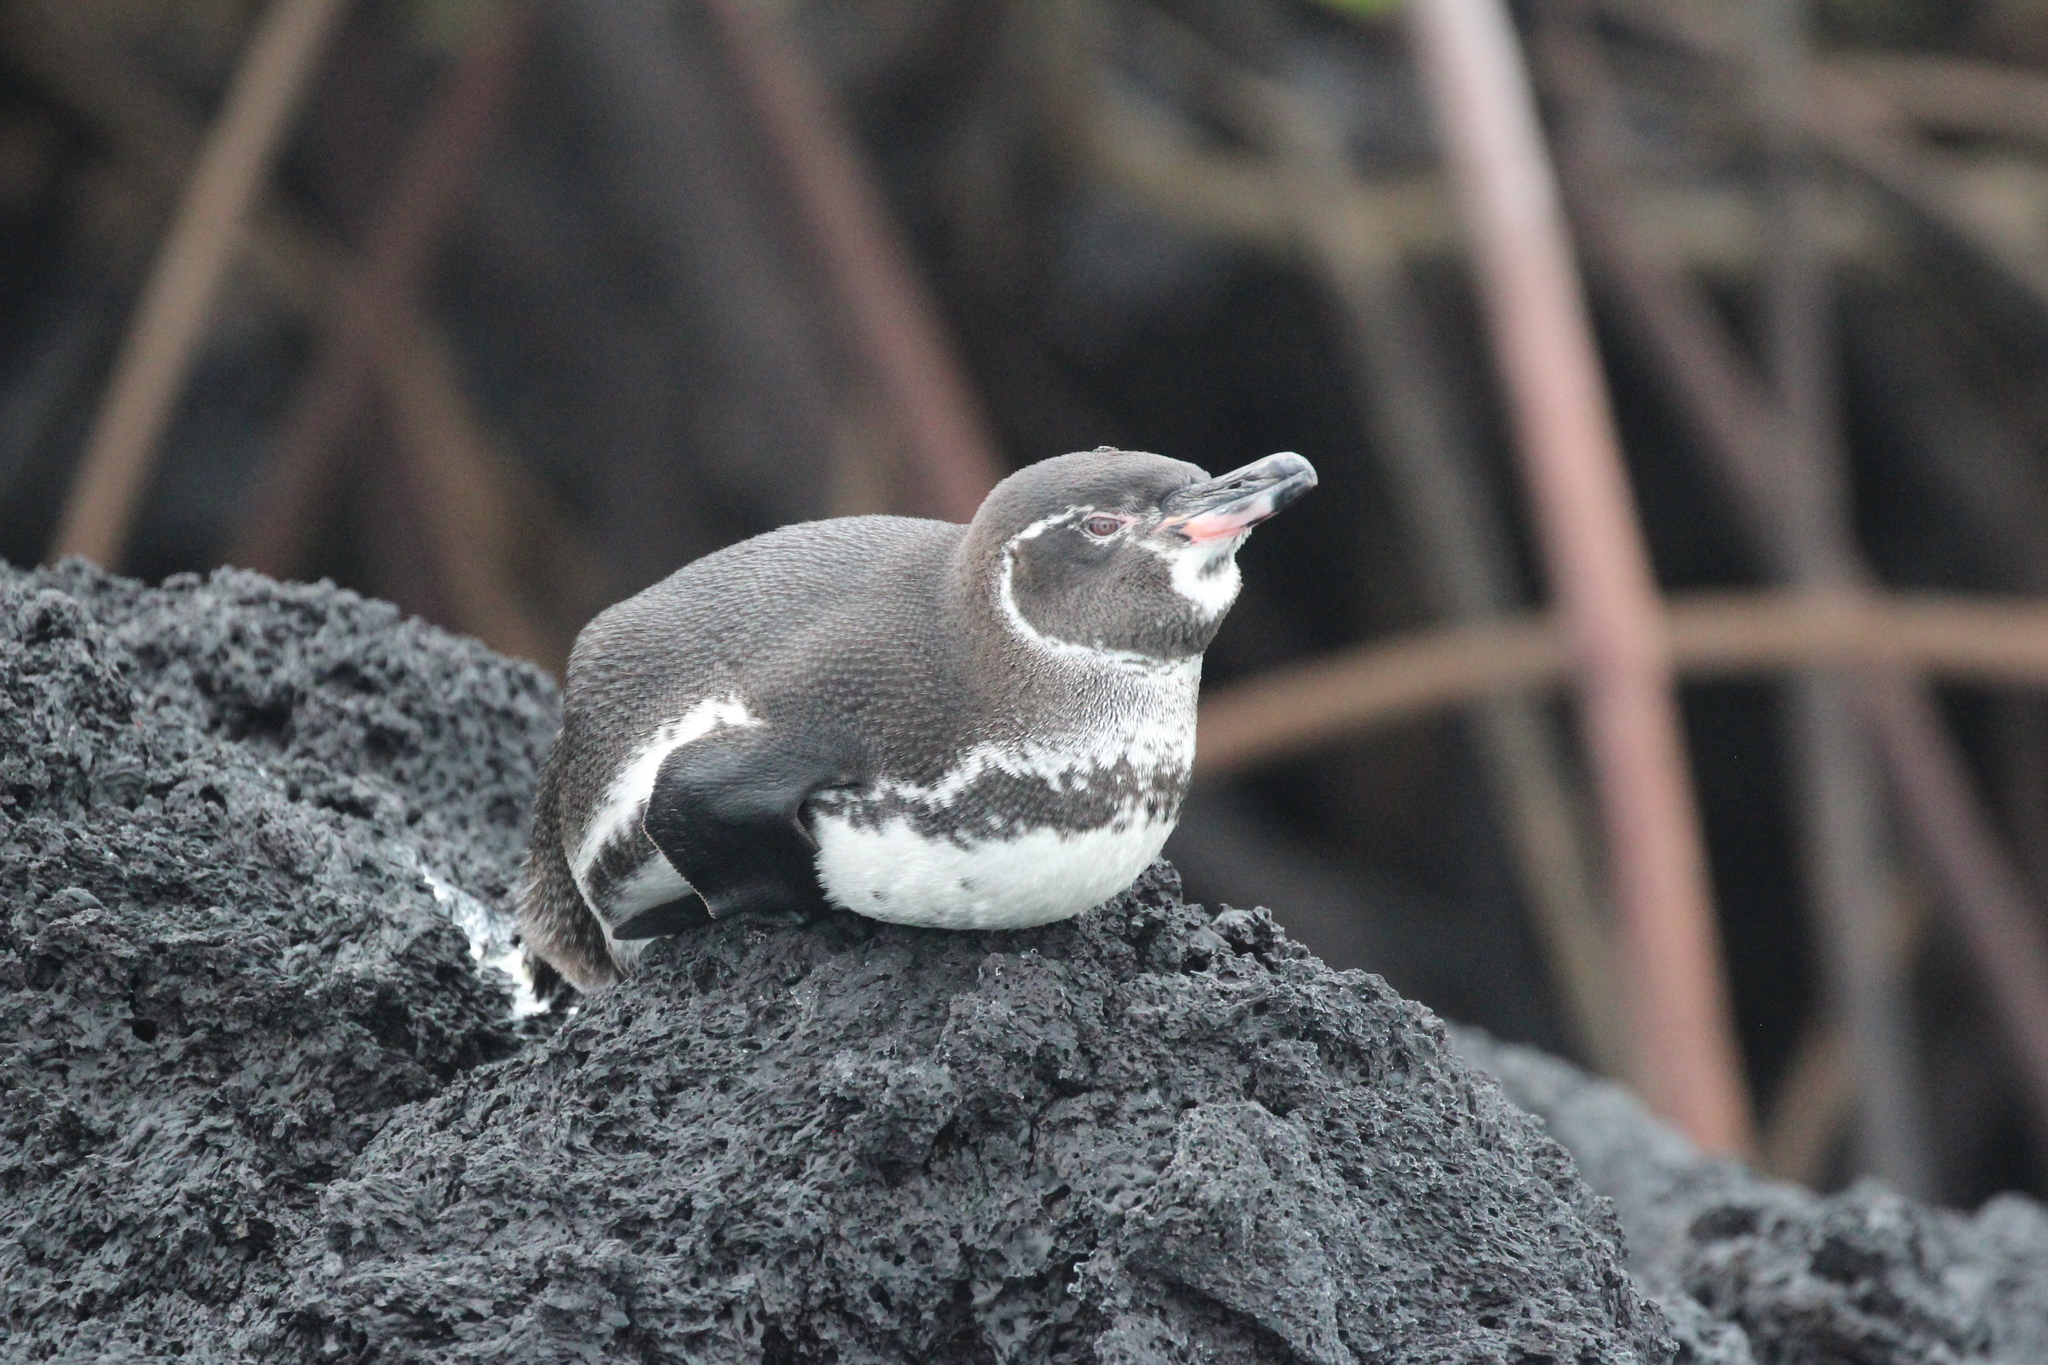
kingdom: Animalia
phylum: Chordata
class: Aves
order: Sphenisciformes
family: Spheniscidae
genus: Spheniscus
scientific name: Spheniscus mendiculus
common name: Galapagos penguin
